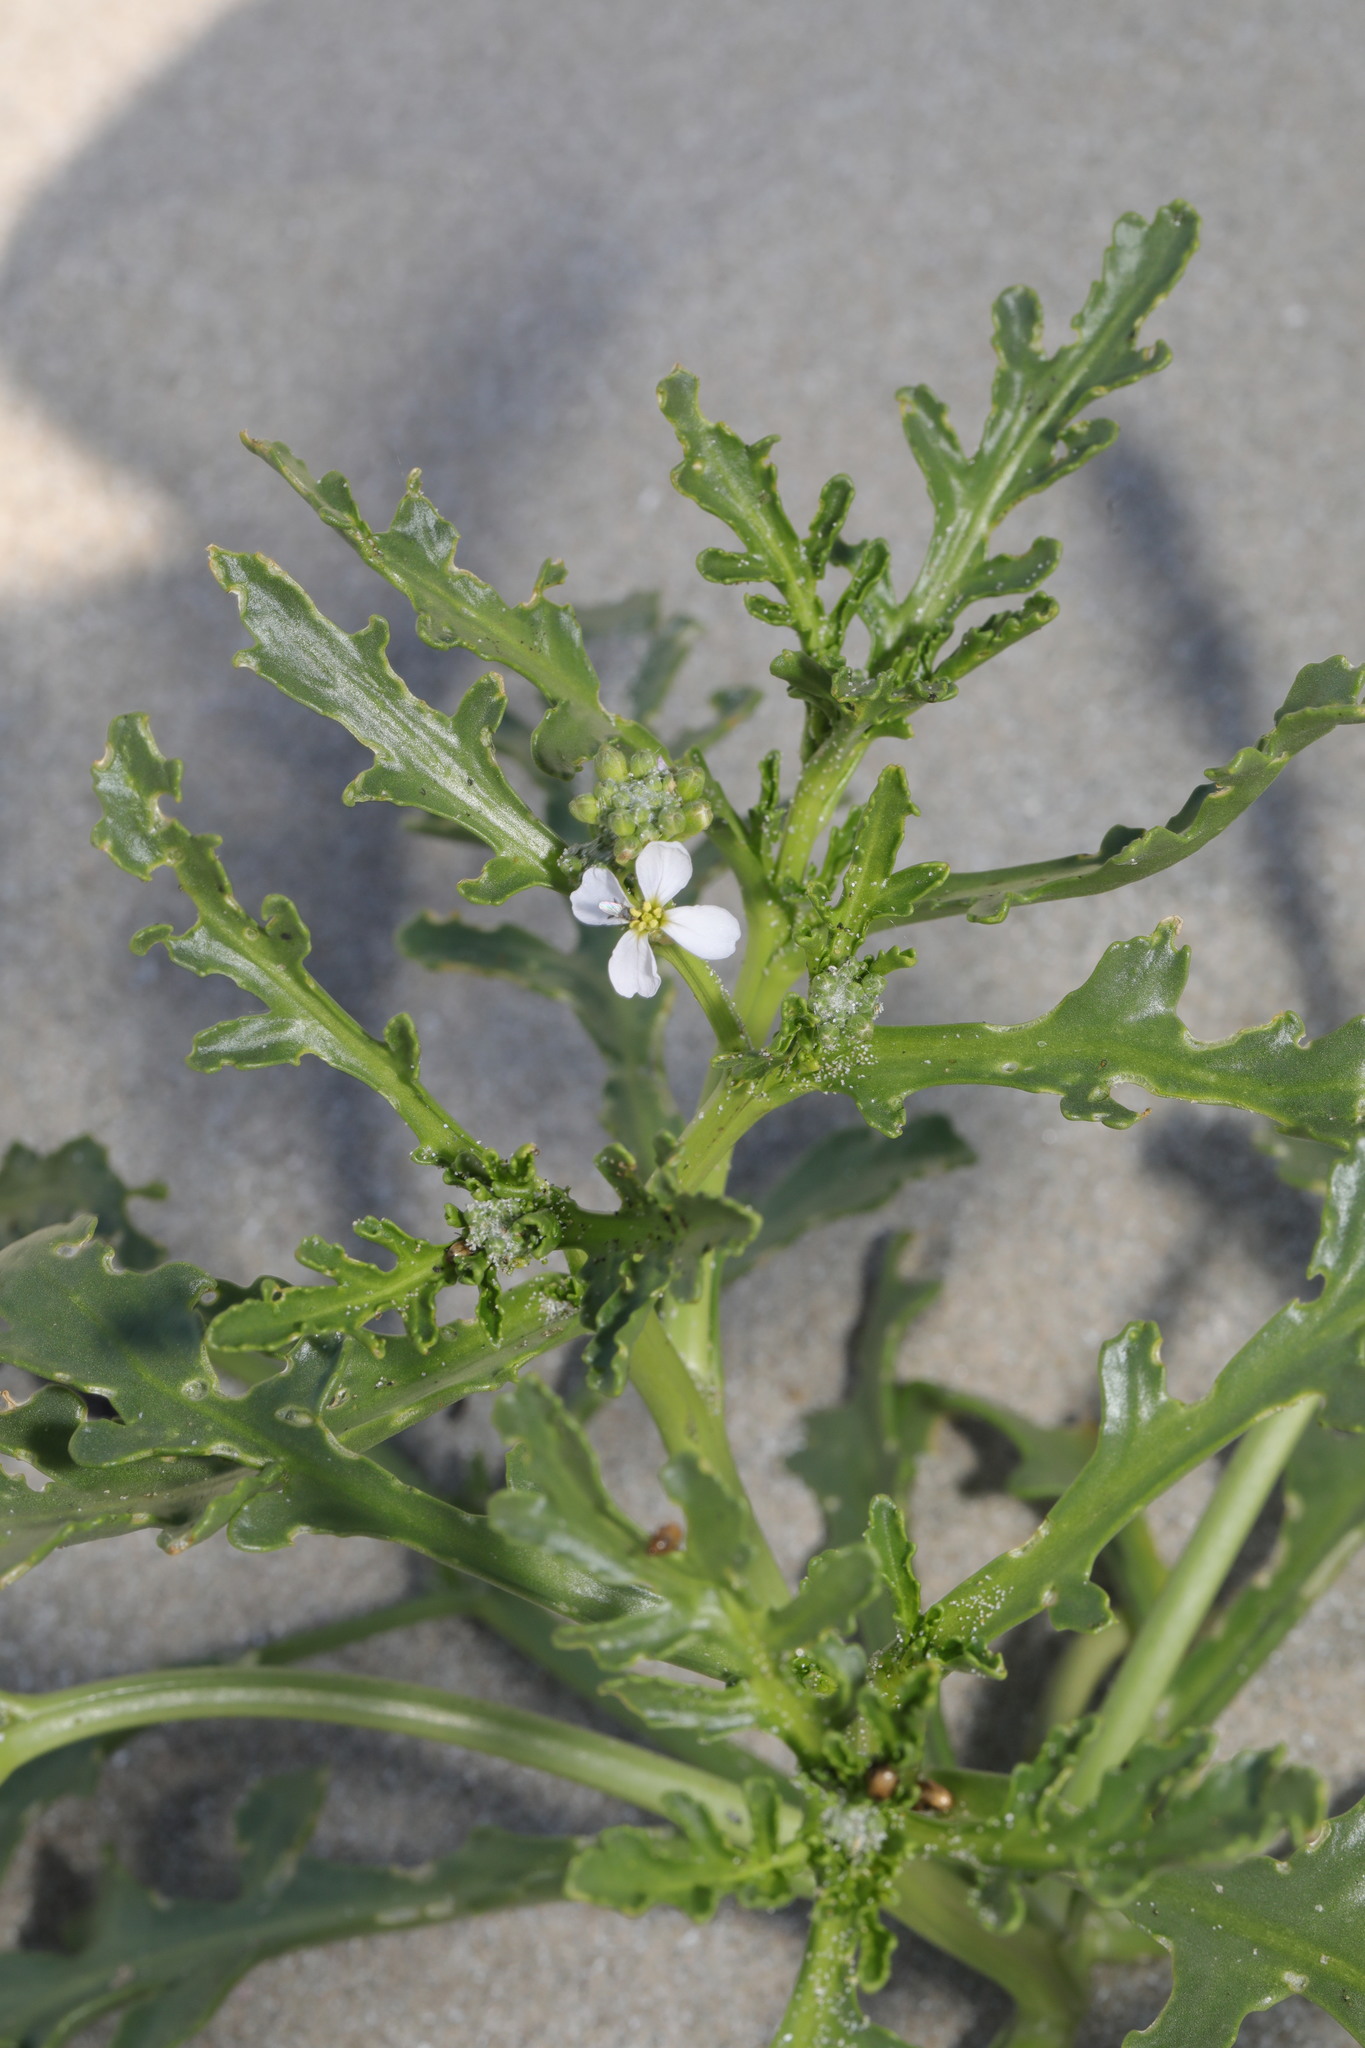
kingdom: Plantae
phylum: Tracheophyta
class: Magnoliopsida
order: Brassicales
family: Brassicaceae
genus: Cakile
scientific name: Cakile maritima
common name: Sea rocket
